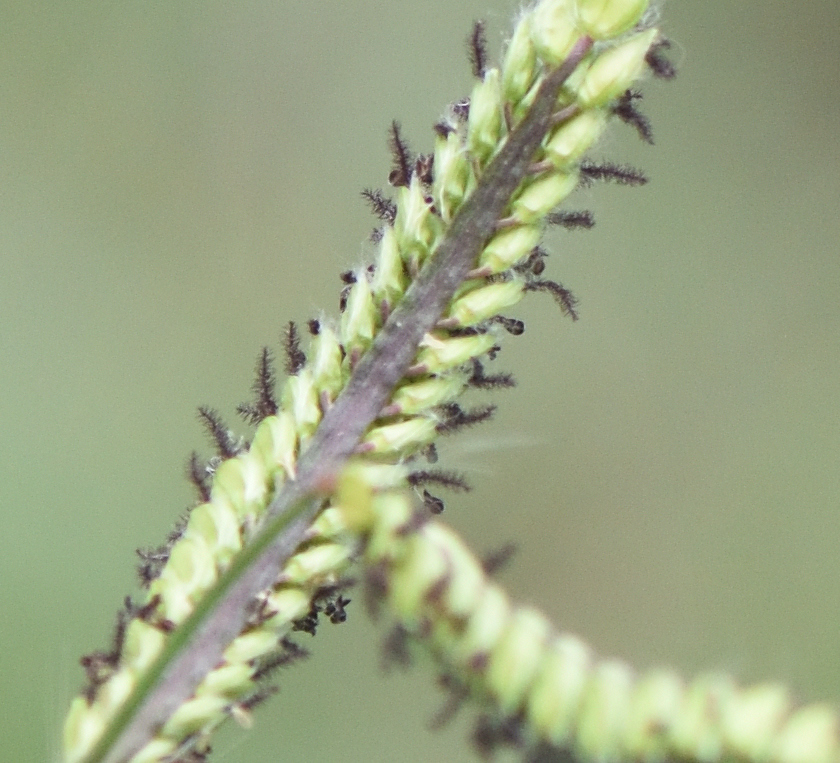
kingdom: Plantae
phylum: Tracheophyta
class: Liliopsida
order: Poales
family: Poaceae
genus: Paspalum
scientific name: Paspalum dilatatum
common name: Dallisgrass
